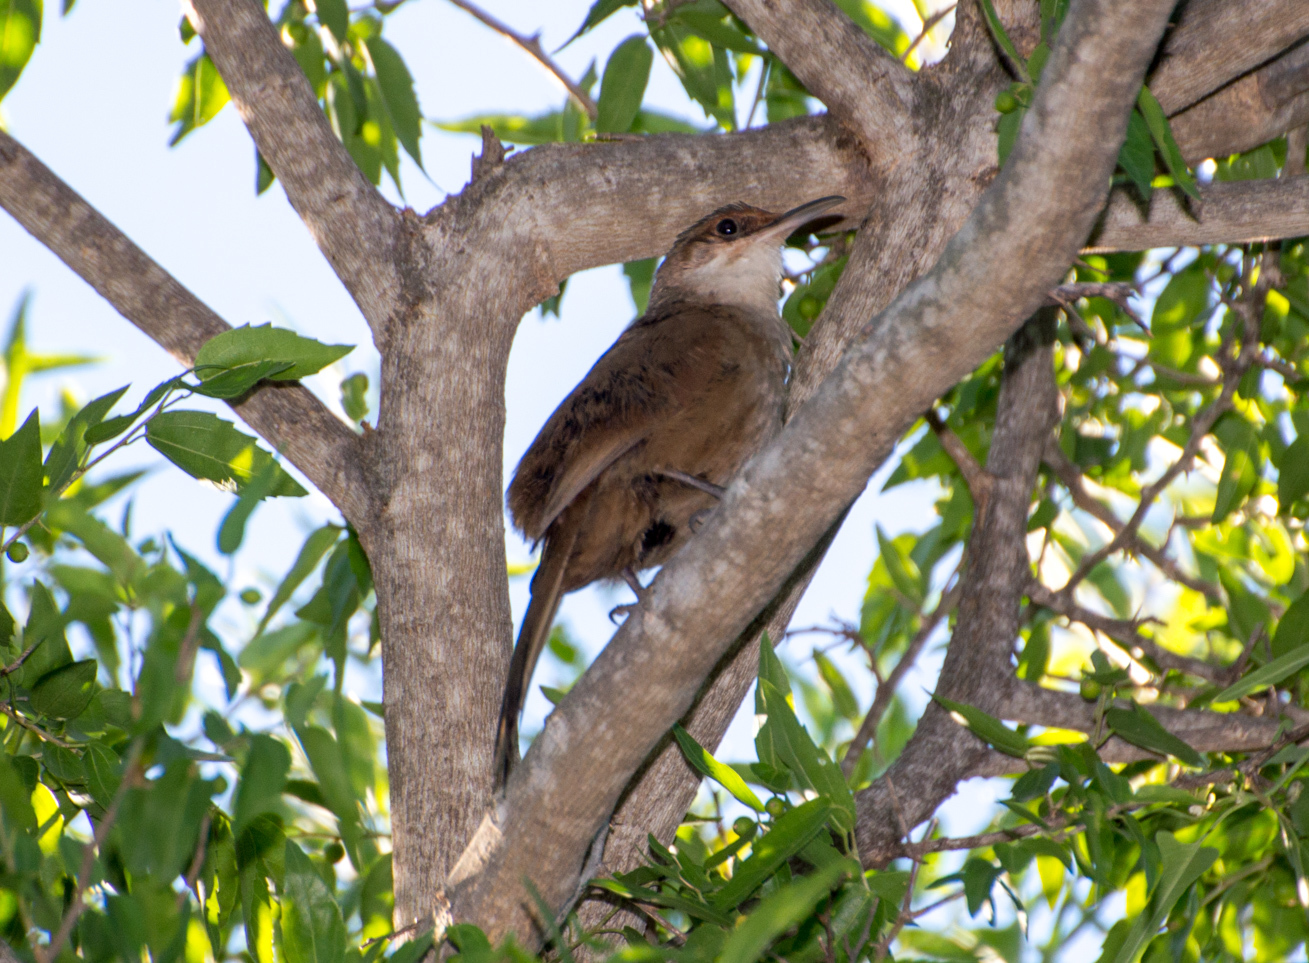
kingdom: Animalia
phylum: Chordata
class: Aves
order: Passeriformes
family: Furnariidae
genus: Upucerthia
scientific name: Upucerthia certhioides
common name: Chaco earthcreeper
